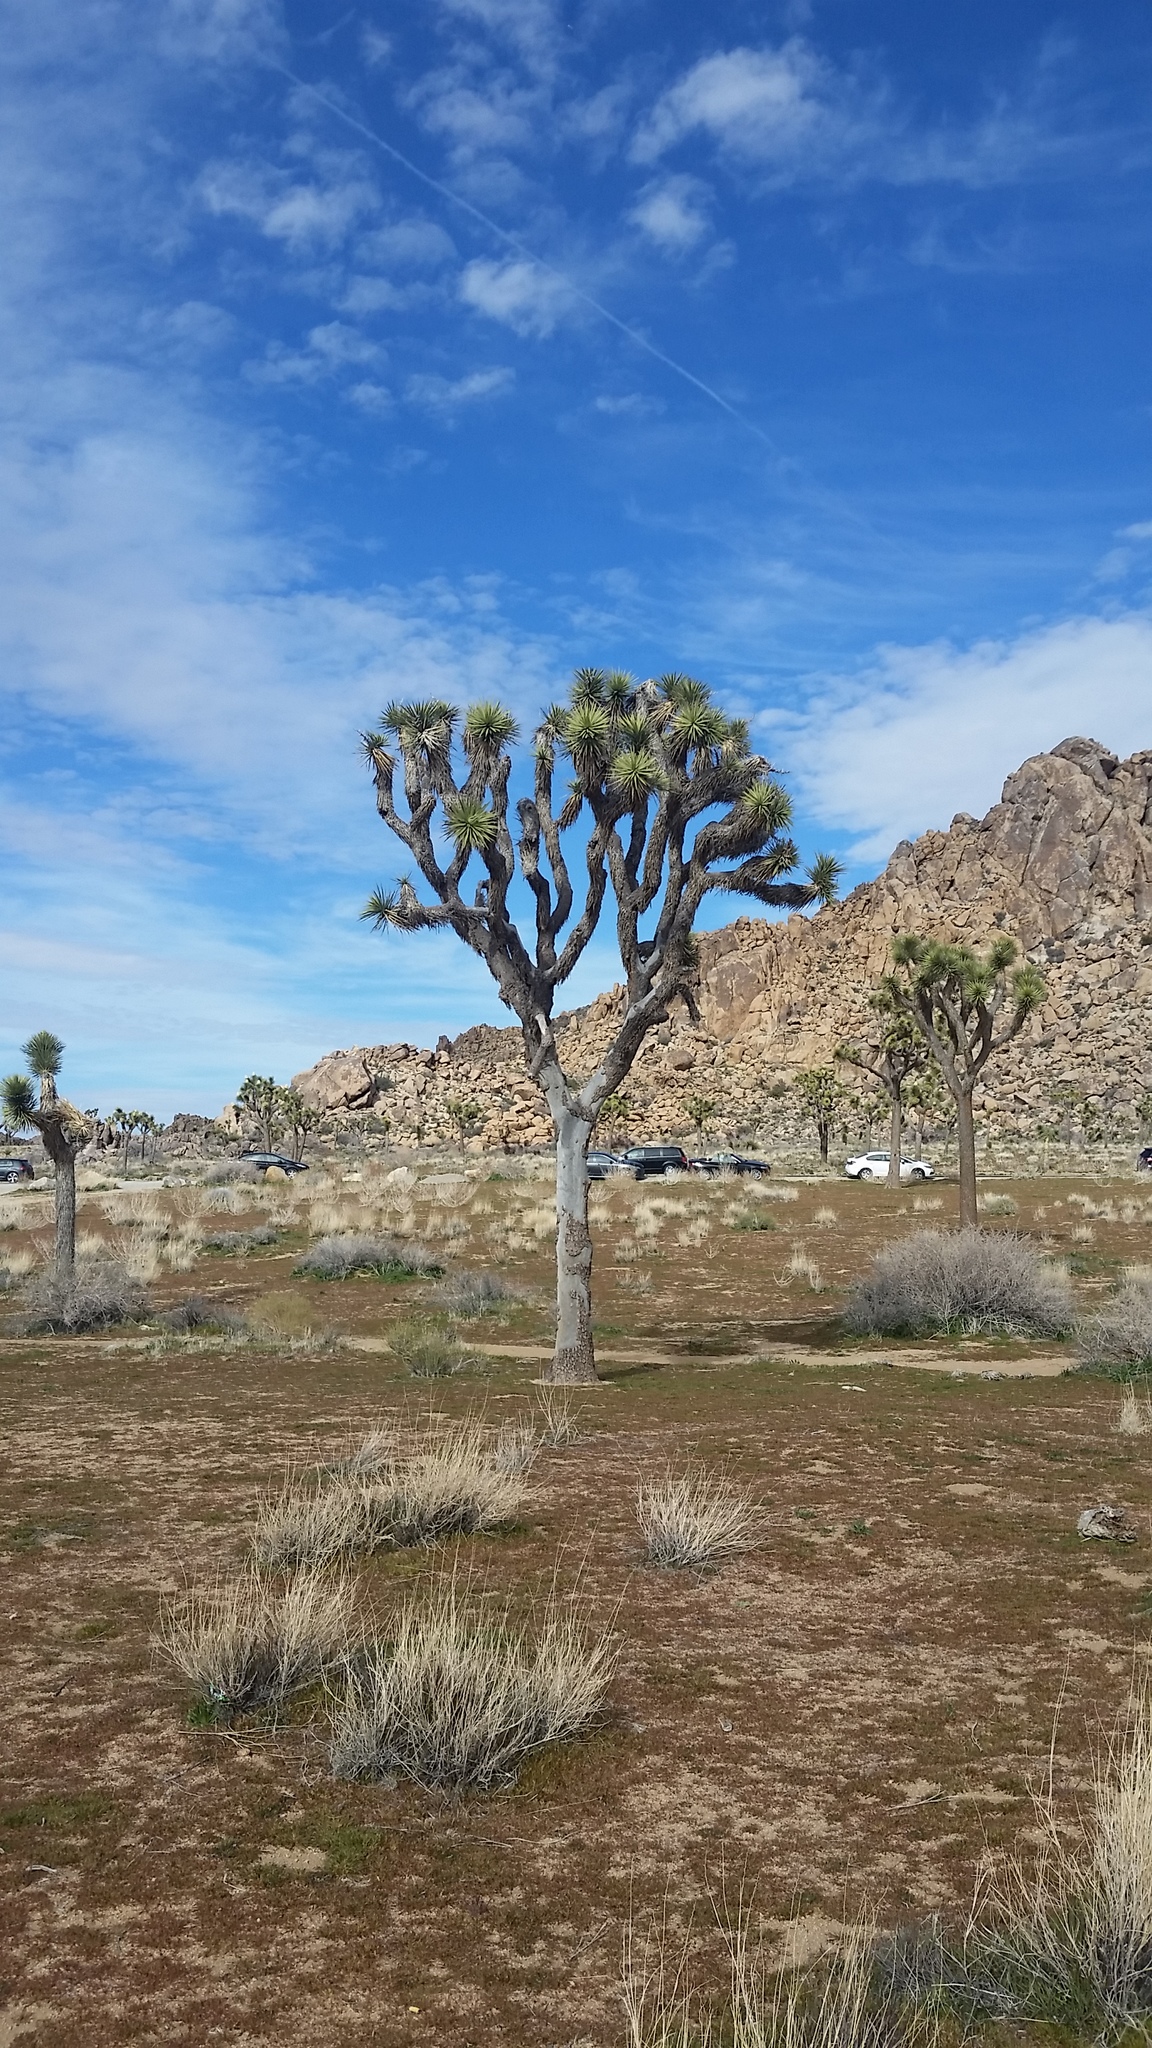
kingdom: Plantae
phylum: Tracheophyta
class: Liliopsida
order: Asparagales
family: Asparagaceae
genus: Yucca
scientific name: Yucca brevifolia
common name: Joshua tree
